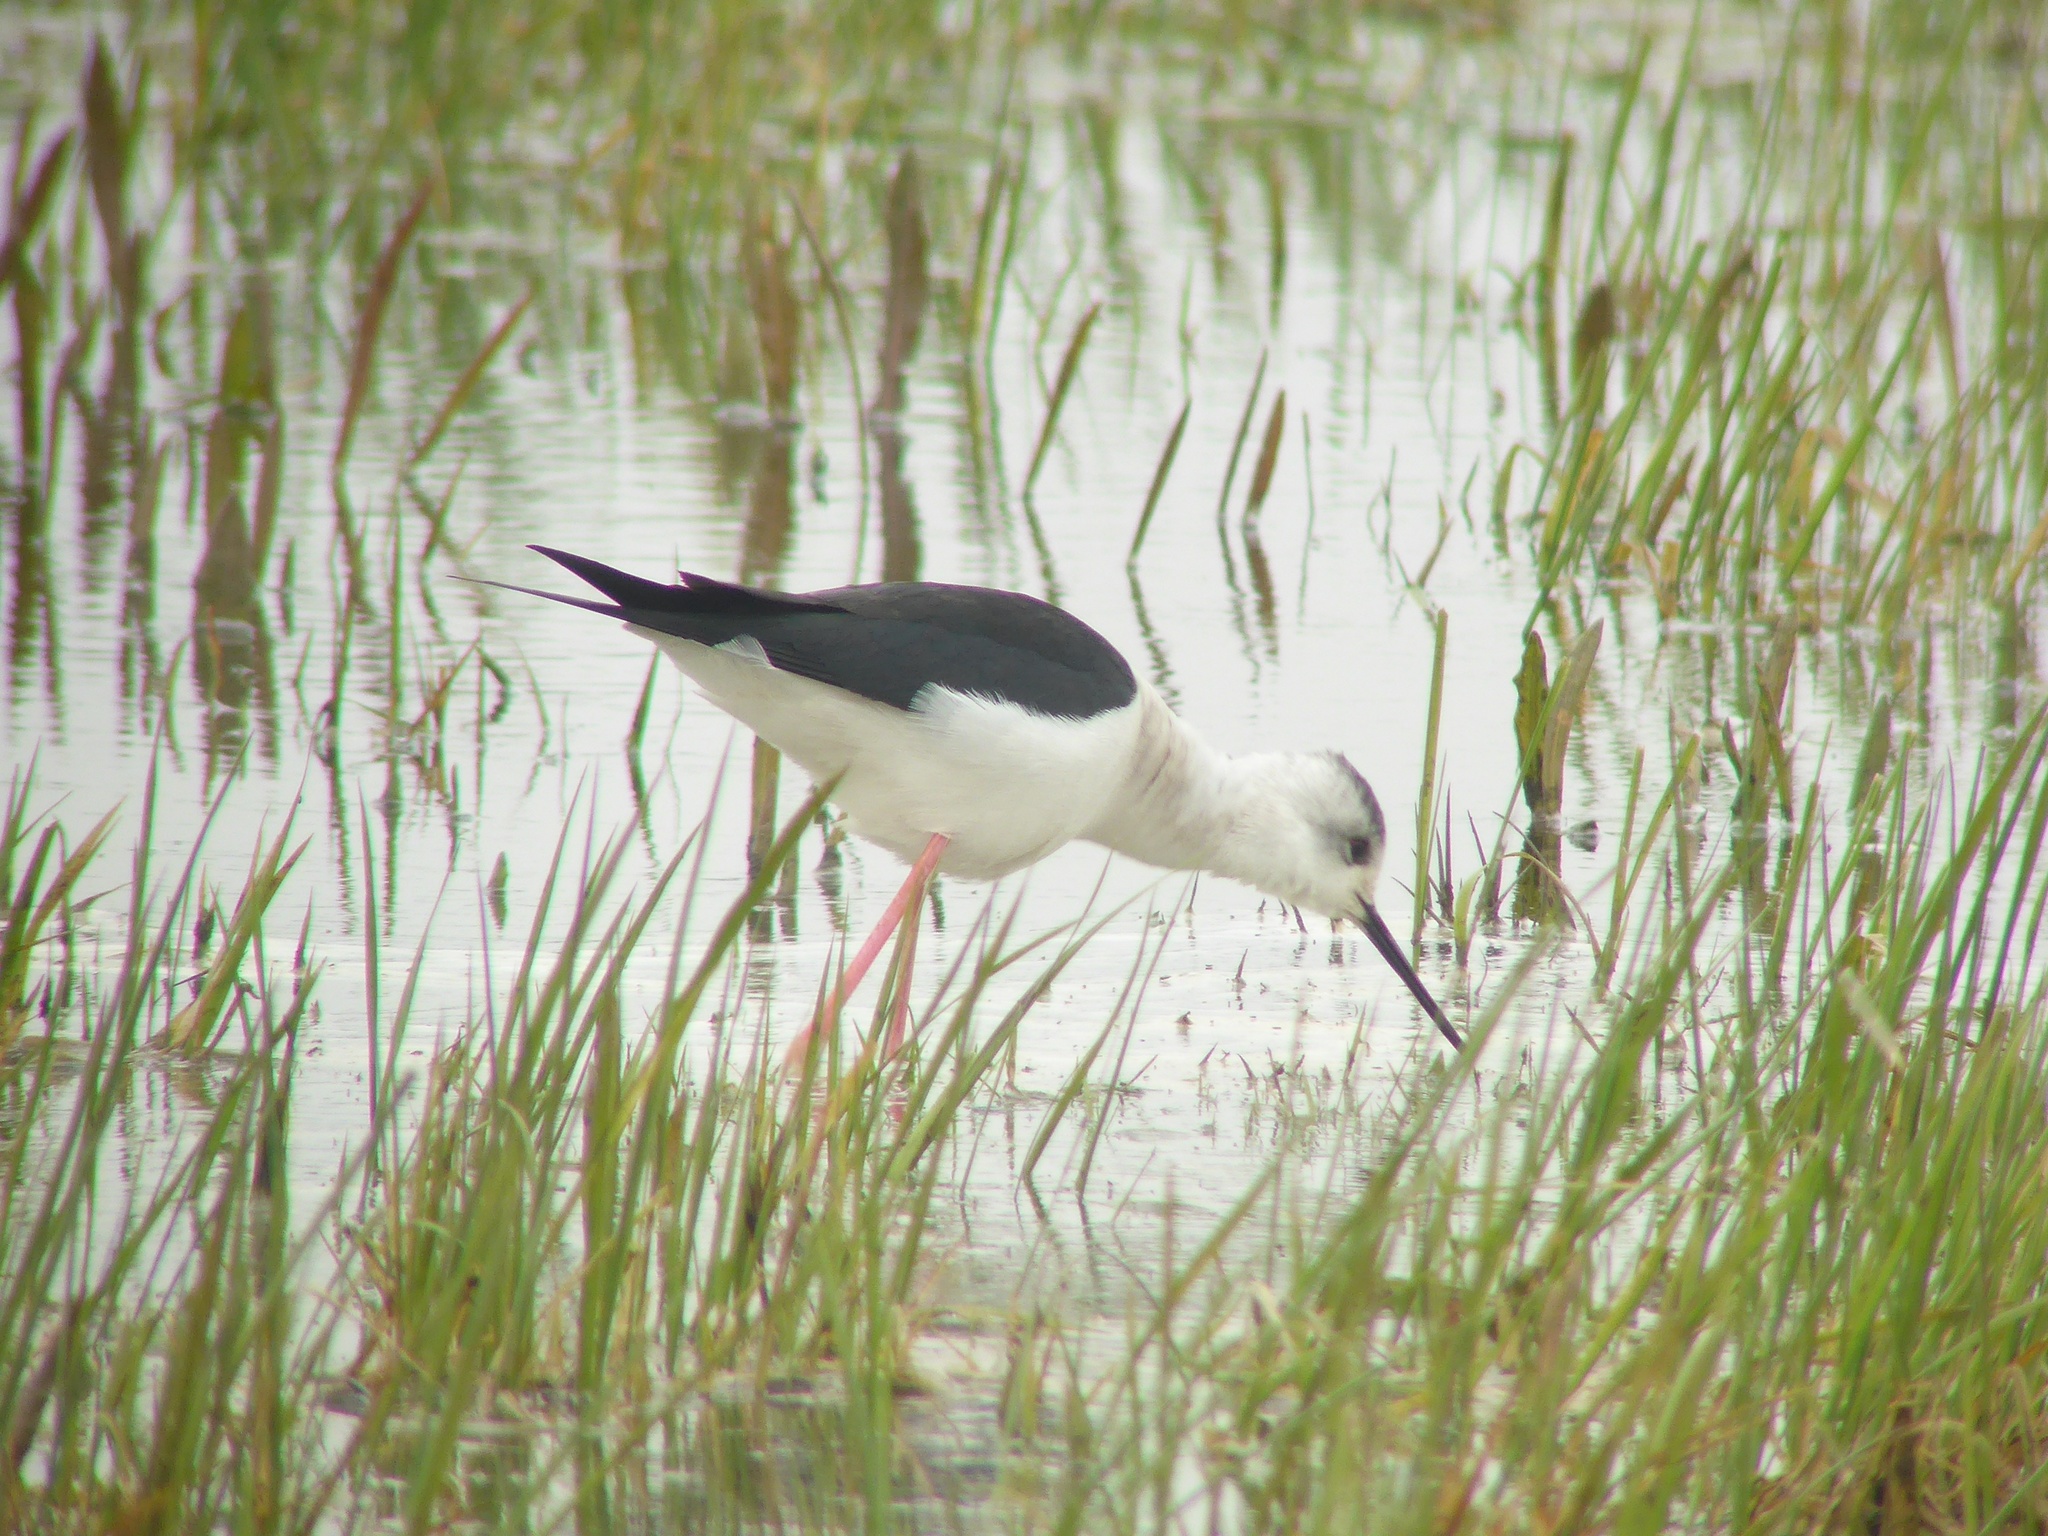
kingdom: Animalia
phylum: Chordata
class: Aves
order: Charadriiformes
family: Recurvirostridae
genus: Himantopus
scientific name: Himantopus himantopus
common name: Black-winged stilt
